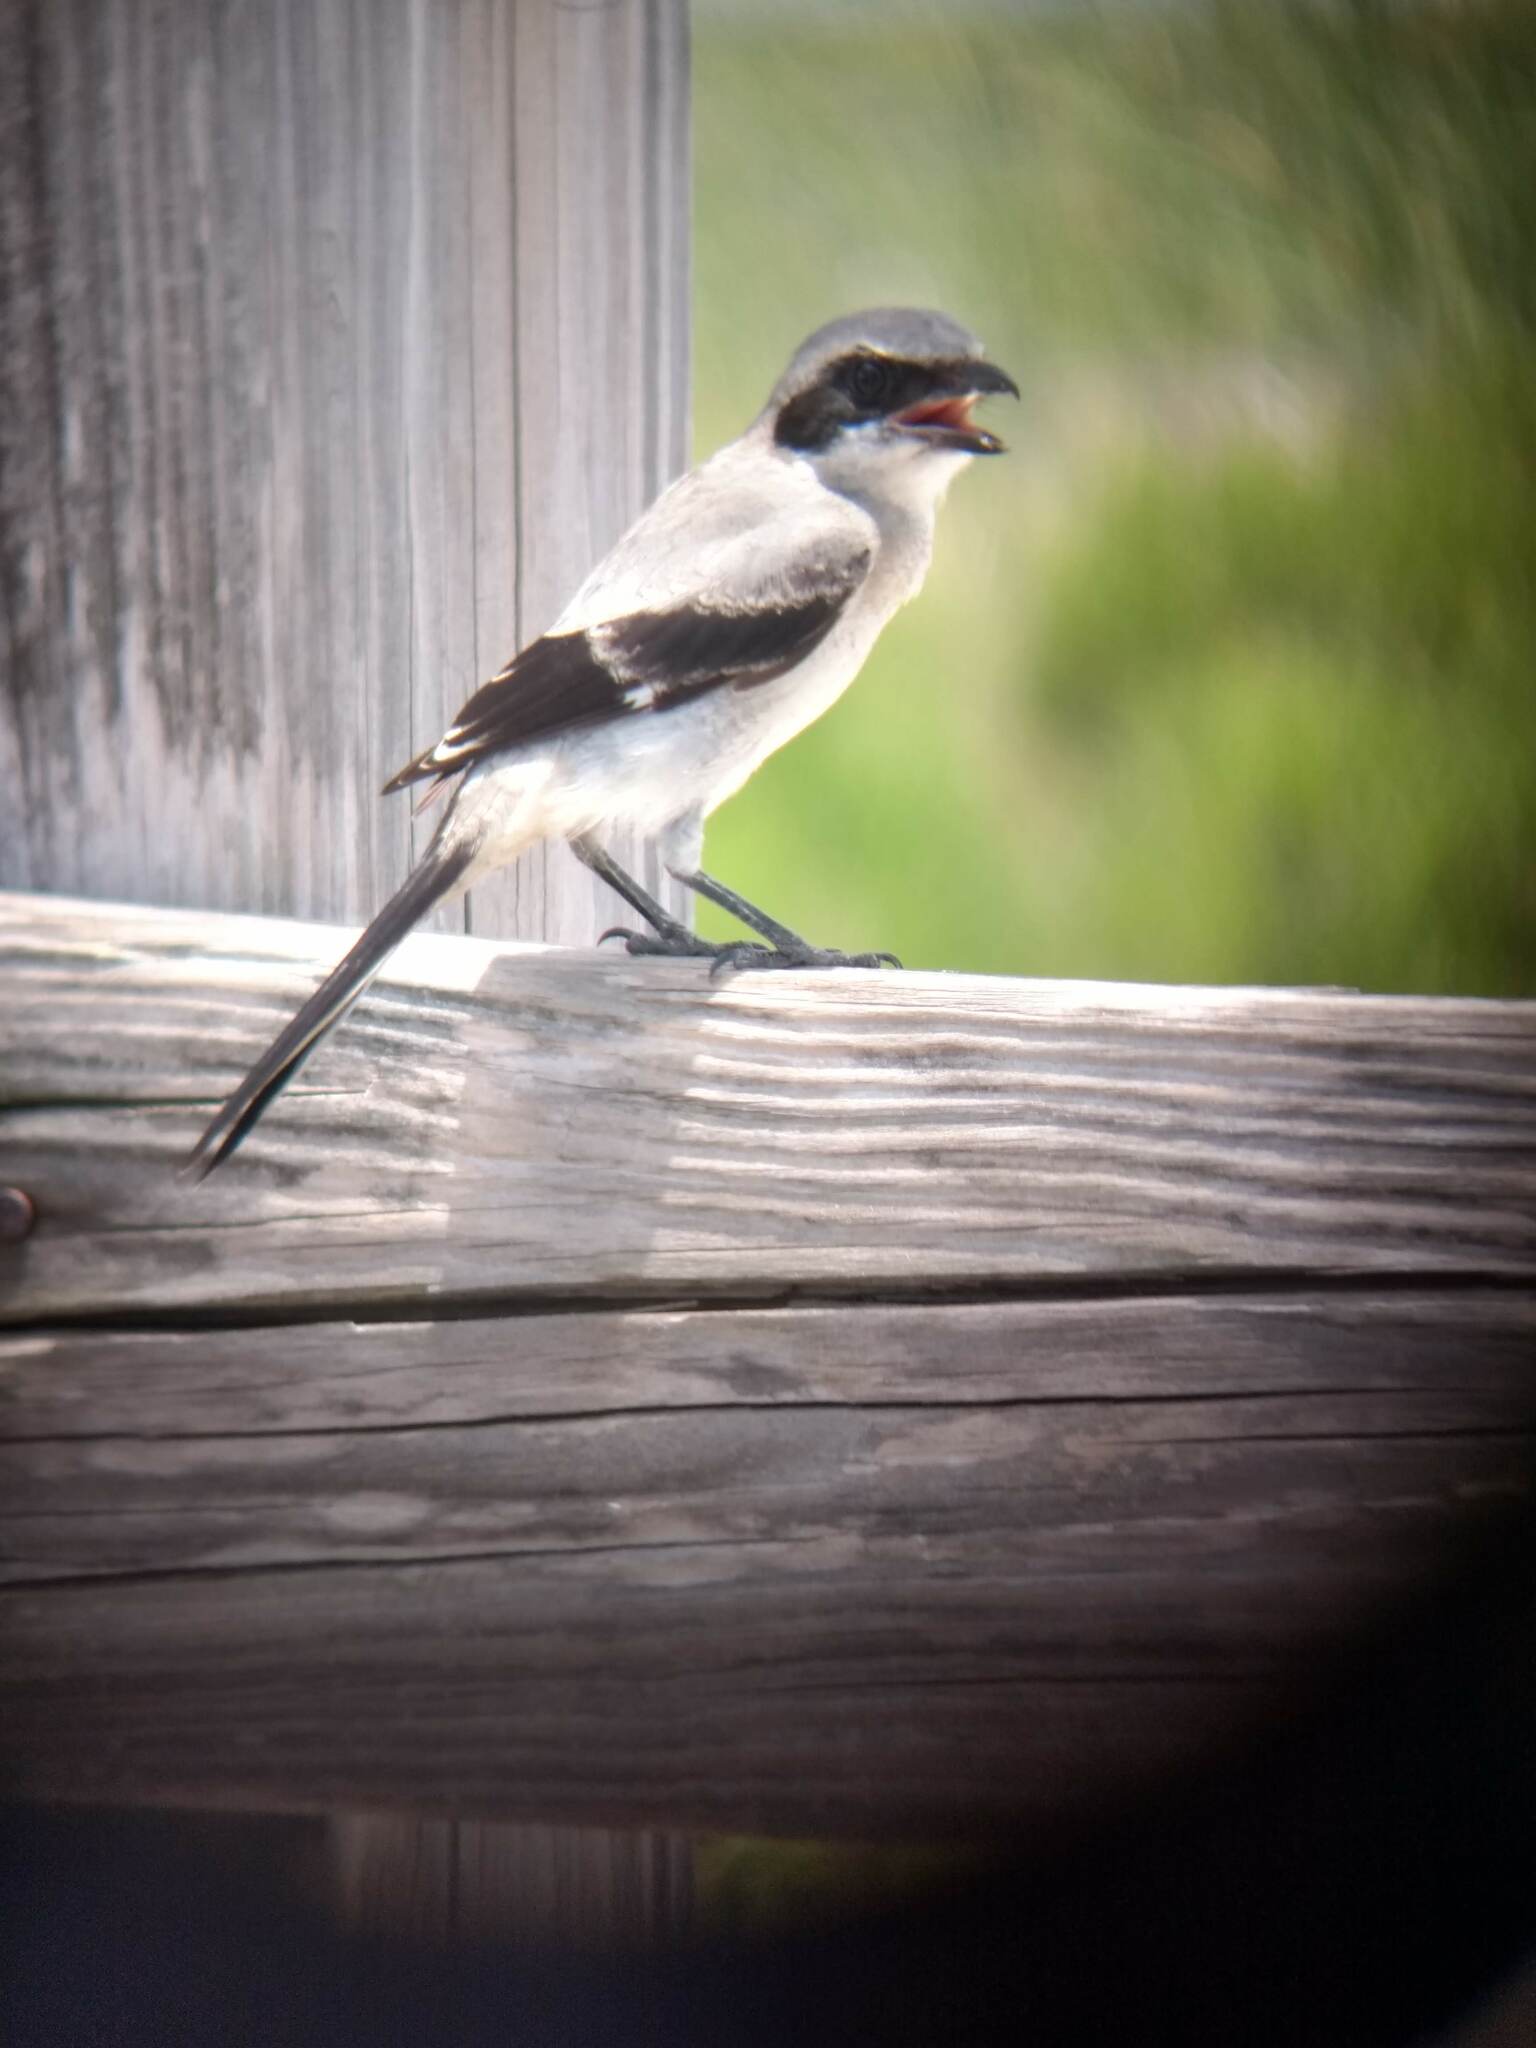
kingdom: Animalia
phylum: Chordata
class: Aves
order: Passeriformes
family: Laniidae
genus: Lanius
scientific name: Lanius ludovicianus
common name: Loggerhead shrike
